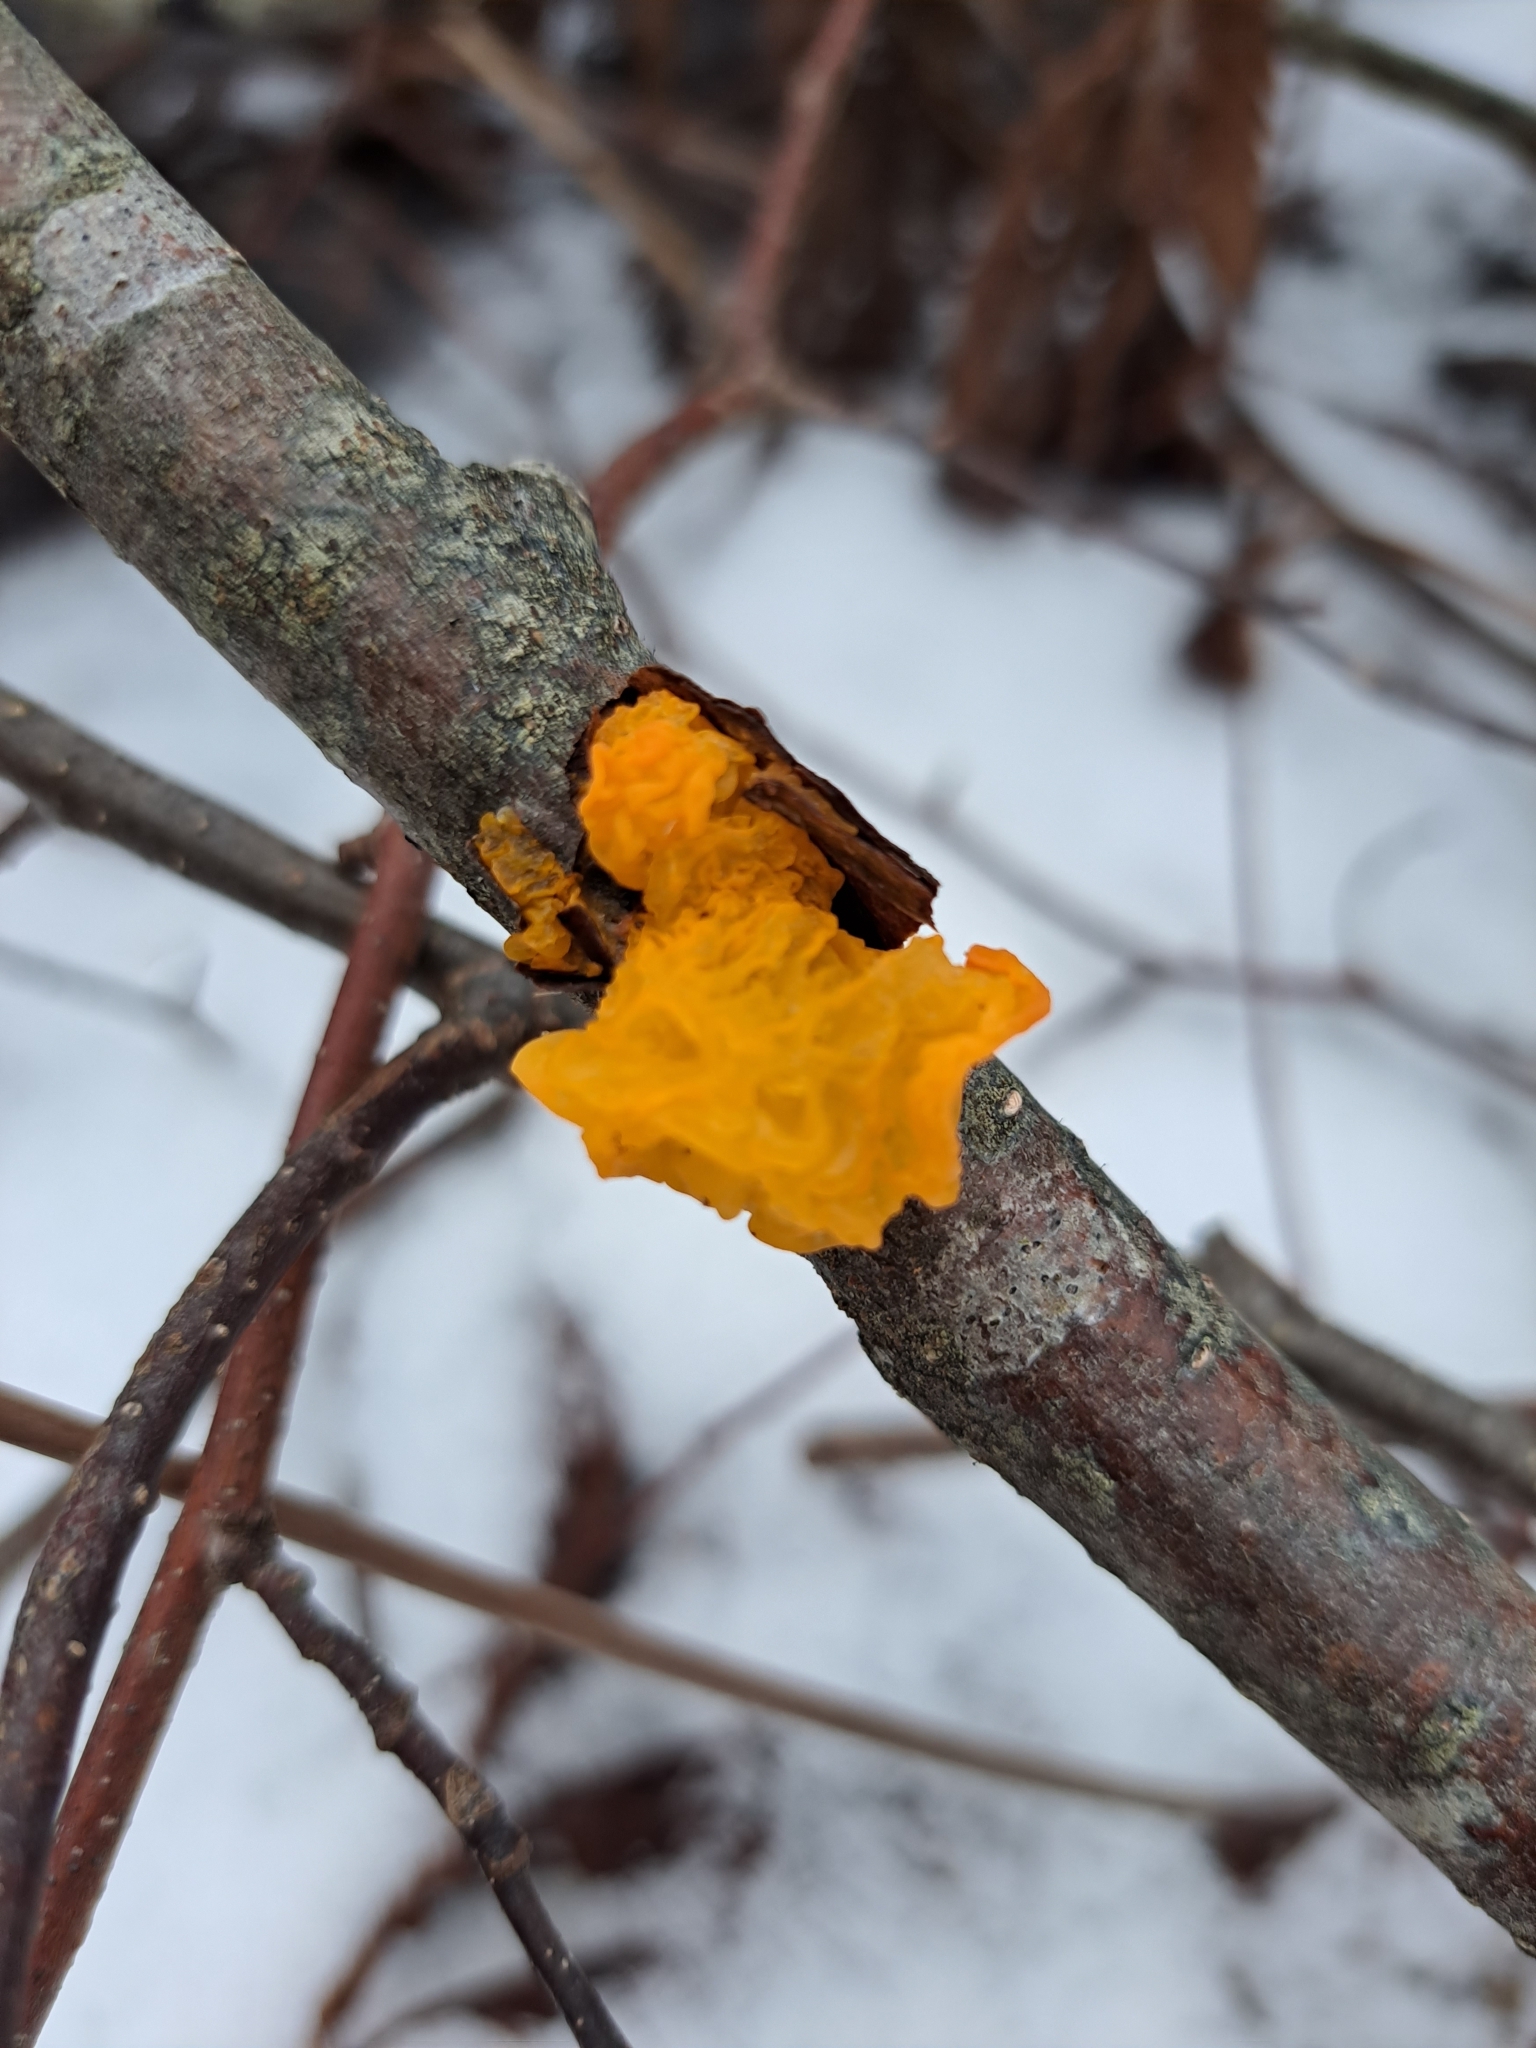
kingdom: Fungi
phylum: Basidiomycota
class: Tremellomycetes
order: Tremellales
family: Tremellaceae
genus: Tremella
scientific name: Tremella mesenterica
